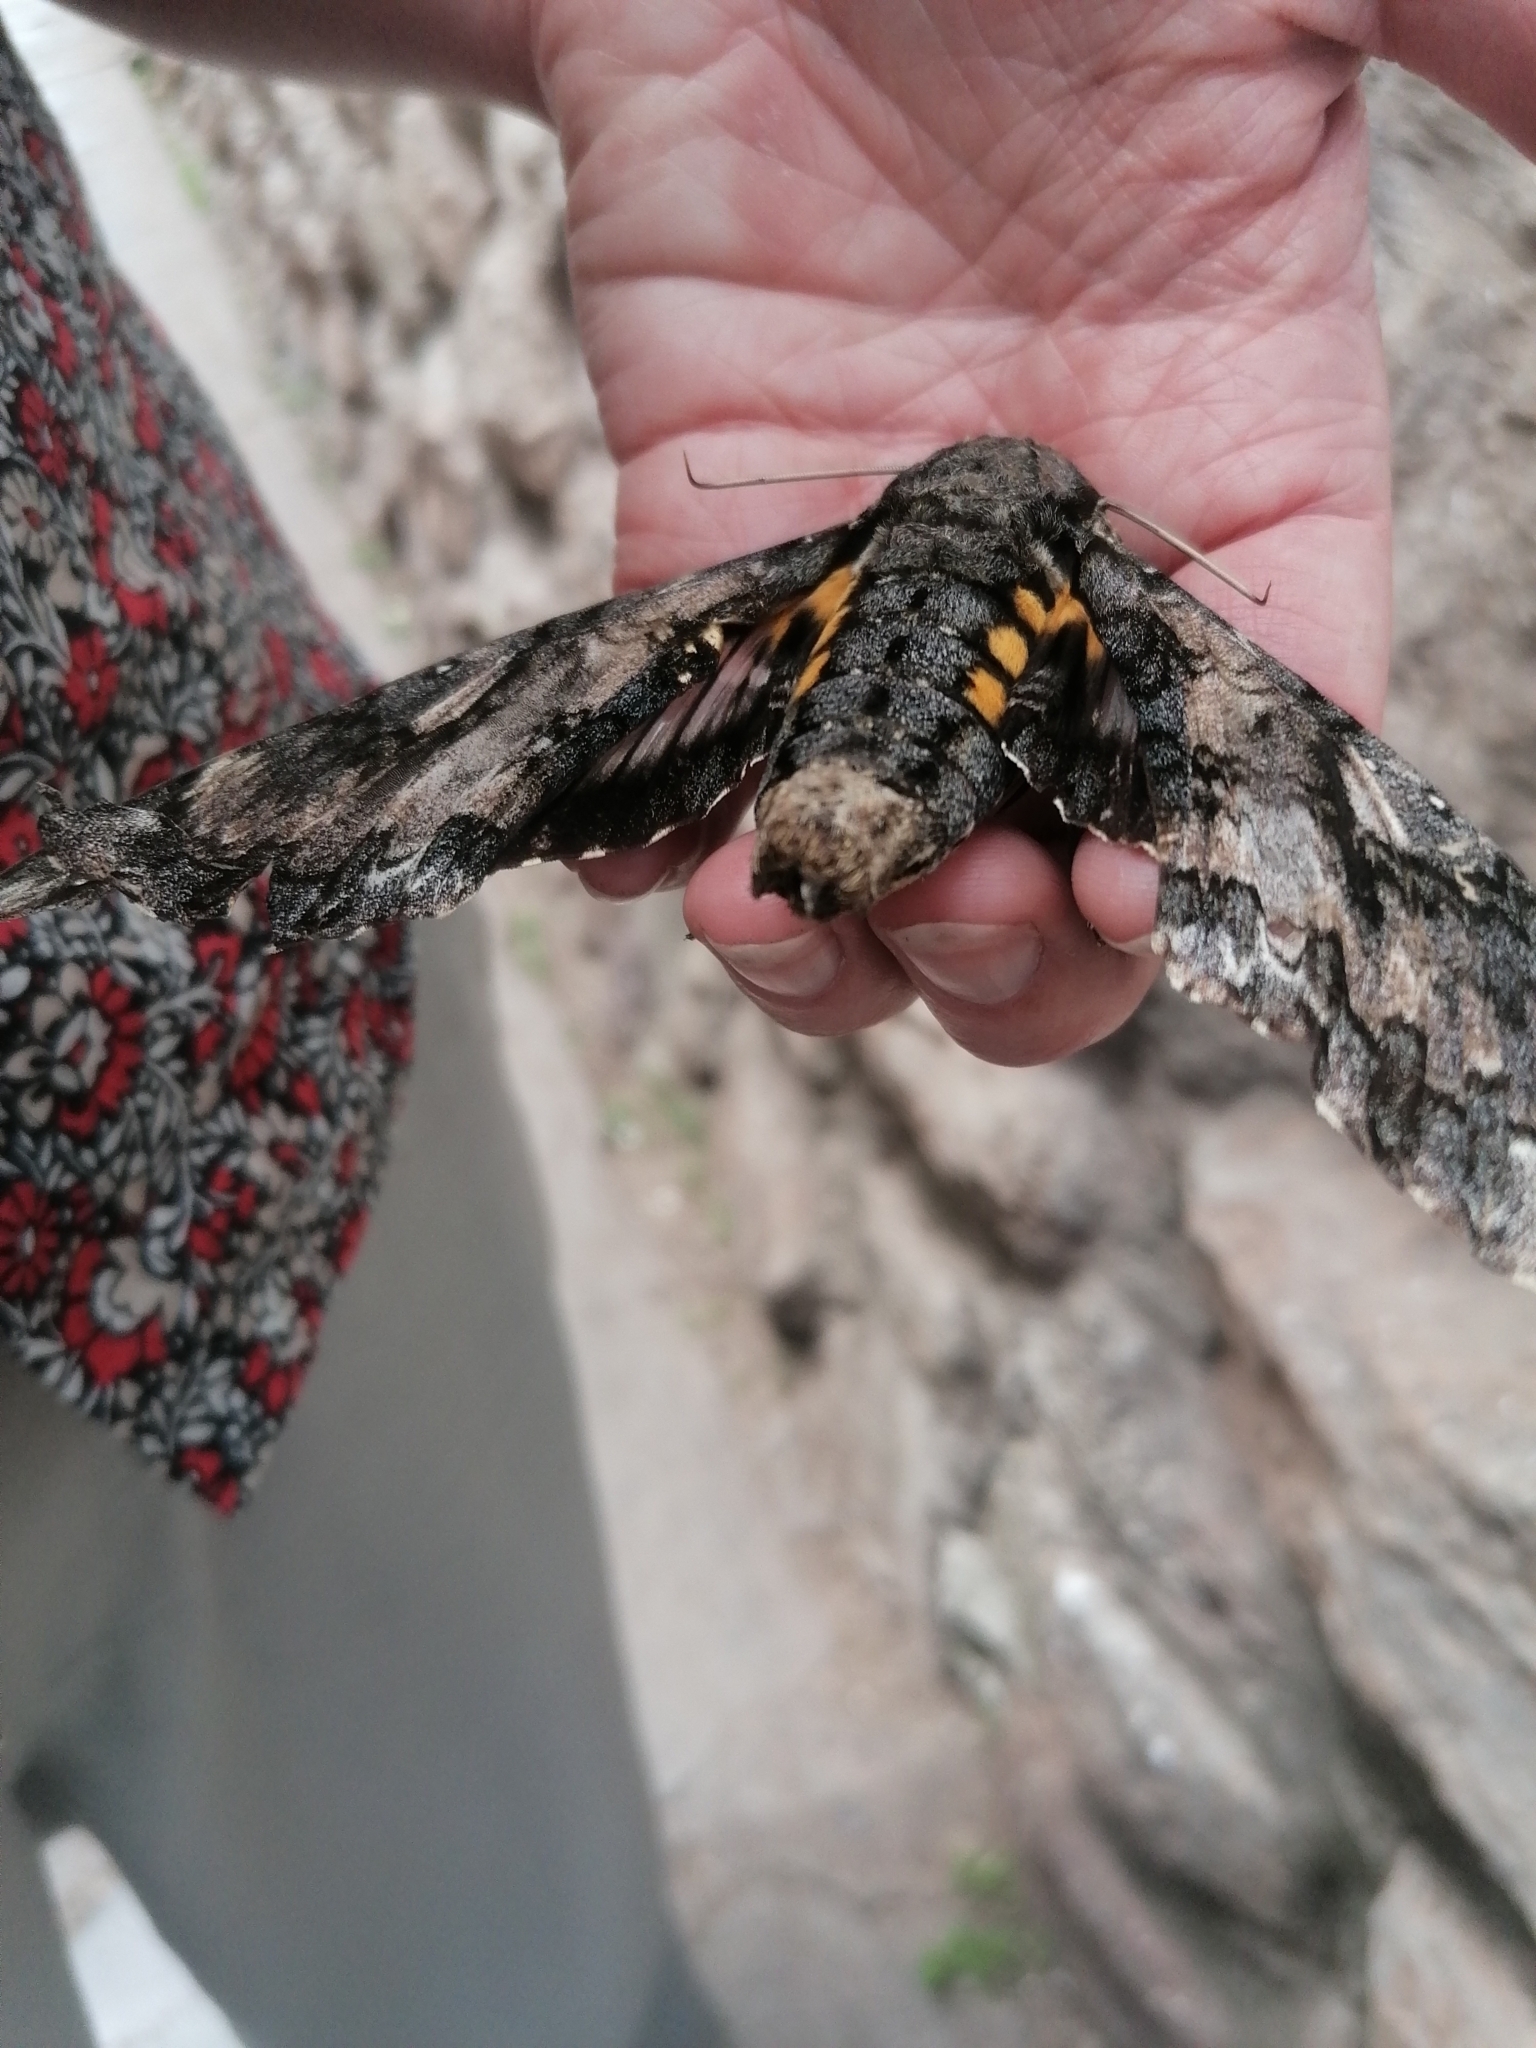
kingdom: Animalia
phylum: Arthropoda
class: Insecta
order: Lepidoptera
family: Sphingidae
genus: Cocytius
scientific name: Cocytius antaeus
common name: Giant sphinx
